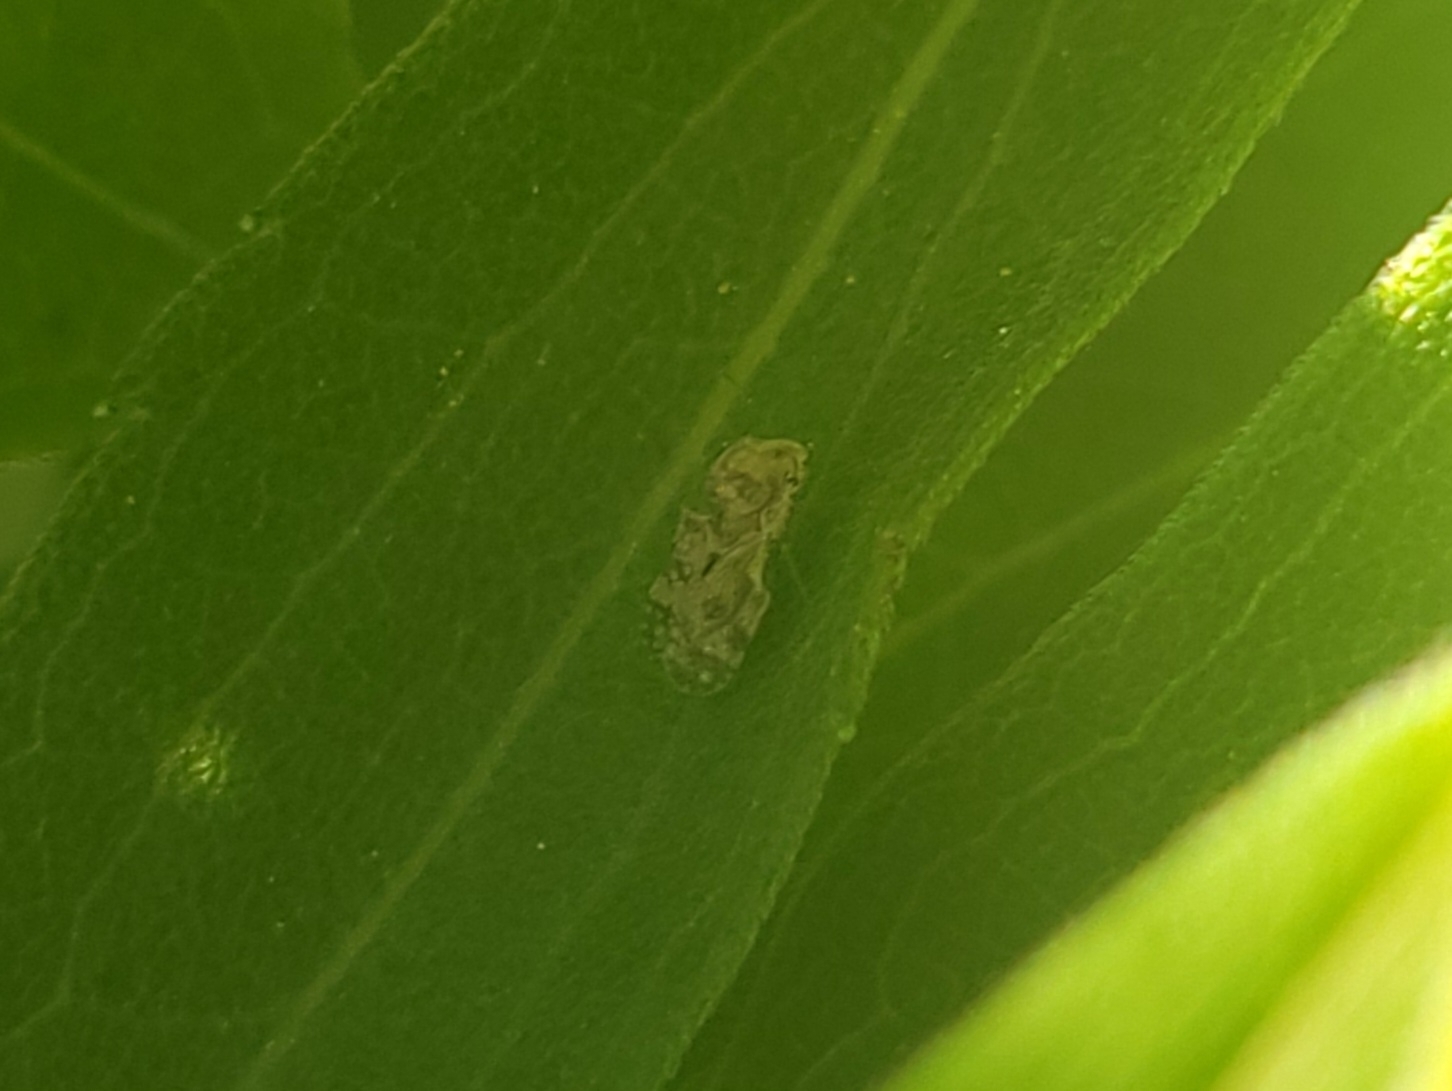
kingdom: Animalia
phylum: Arthropoda
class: Insecta
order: Hemiptera
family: Tingidae
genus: Corythucha
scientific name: Corythucha marmorata
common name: Chrysanthemum lace bug
